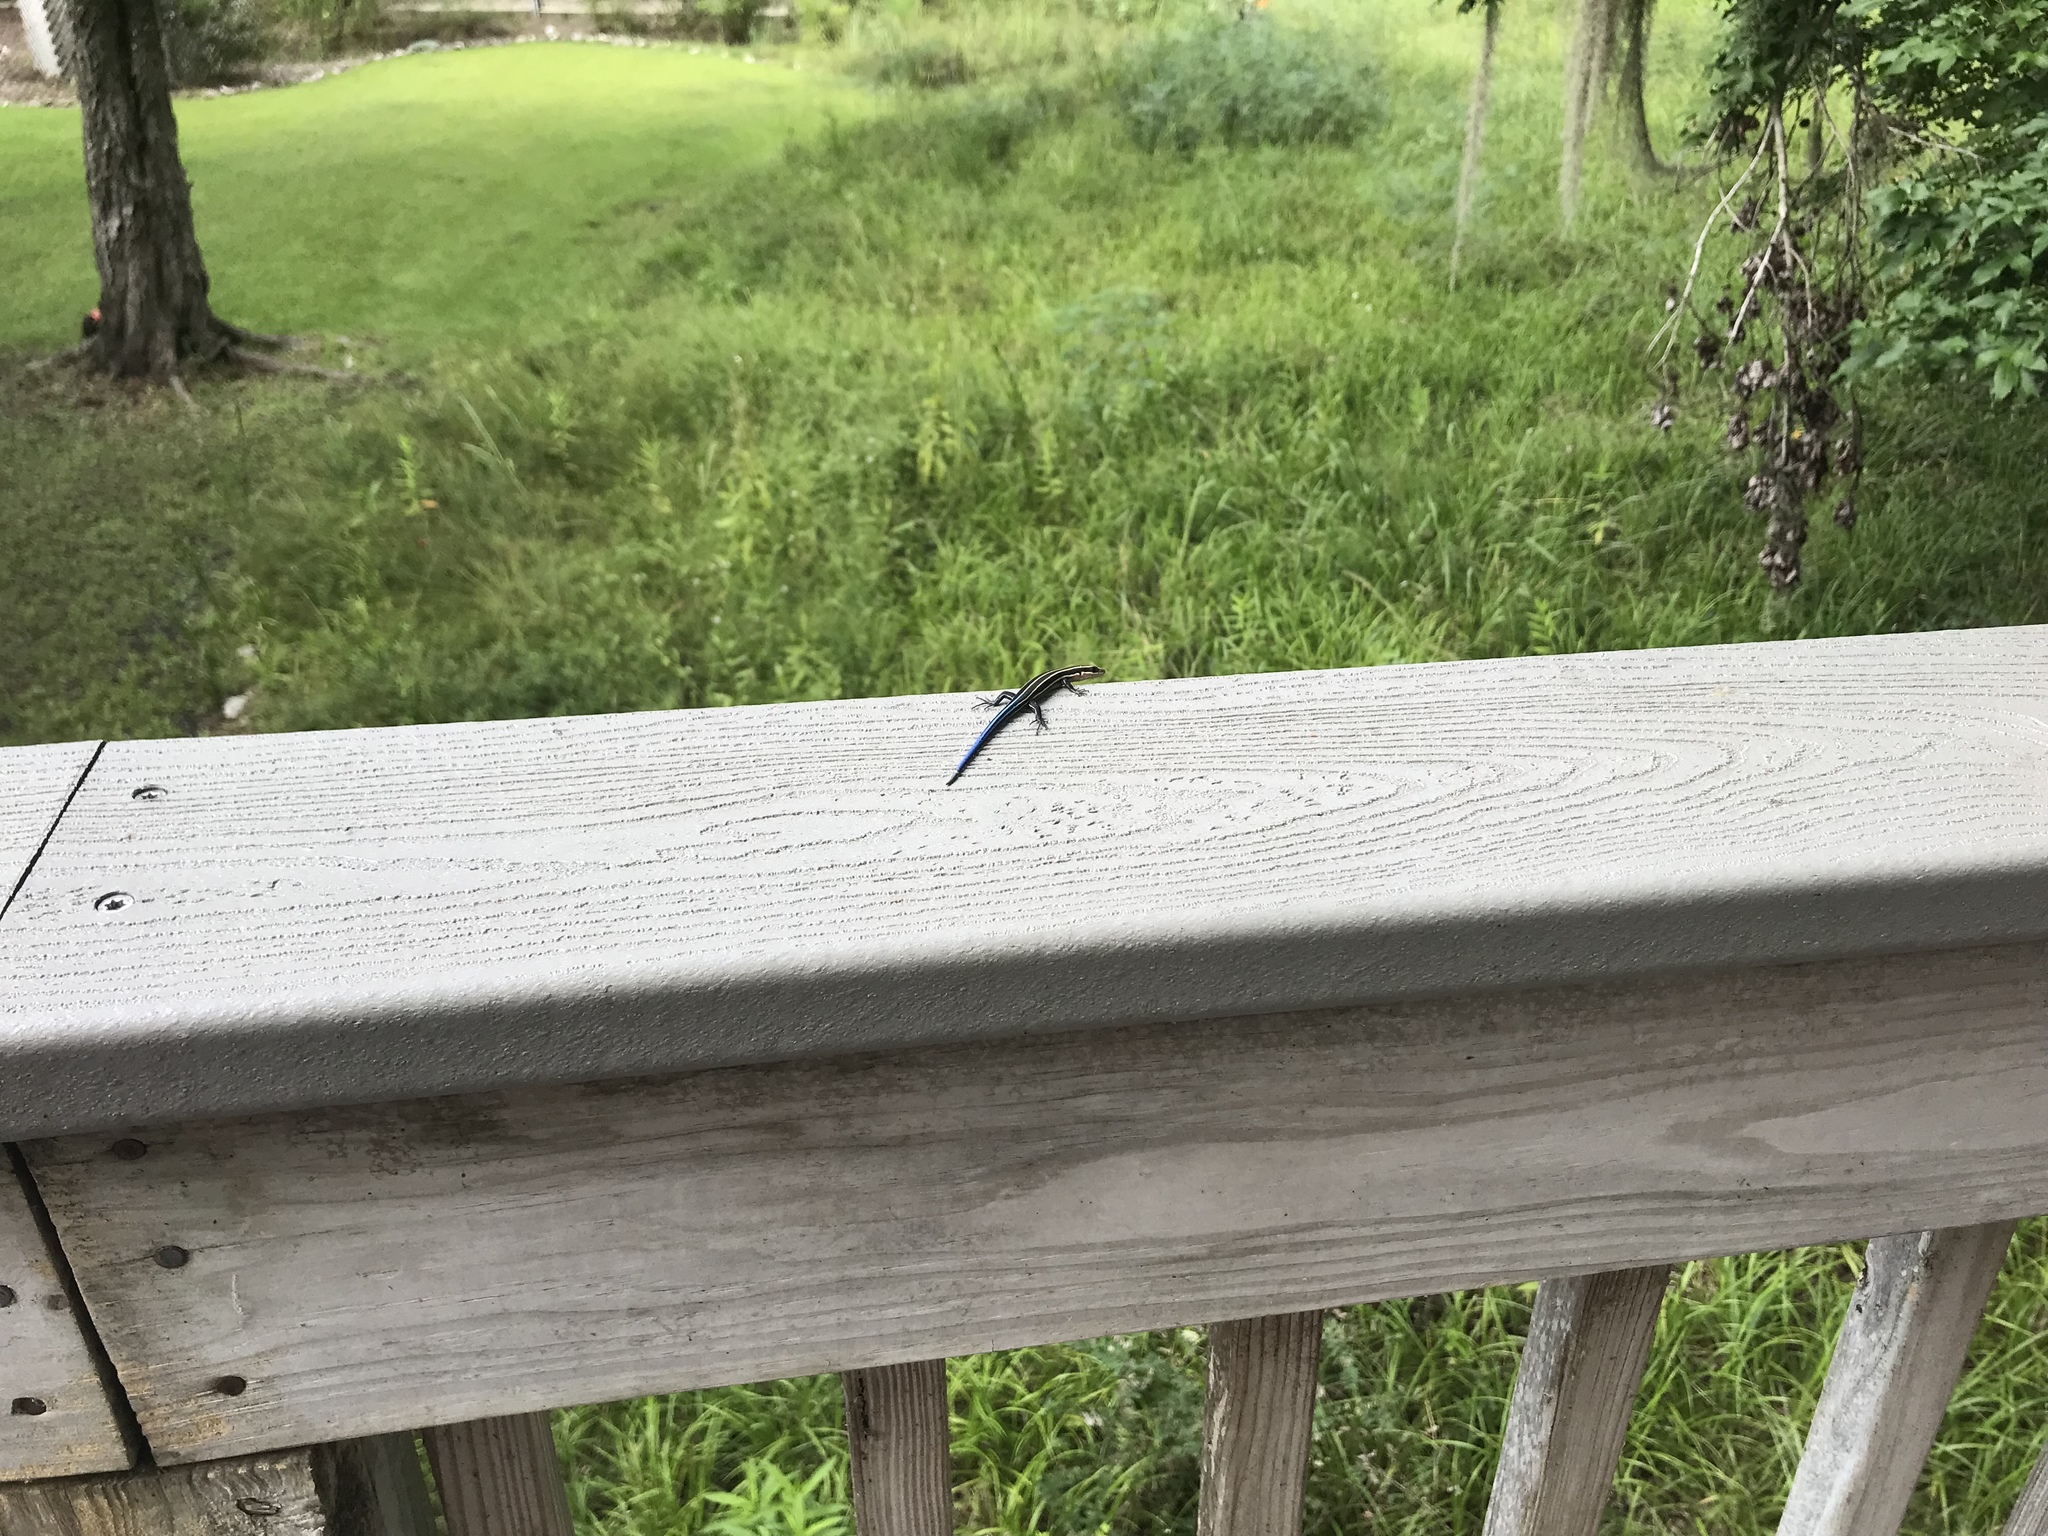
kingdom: Animalia
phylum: Chordata
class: Squamata
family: Scincidae
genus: Plestiodon
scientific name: Plestiodon fasciatus
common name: Five-lined skink
